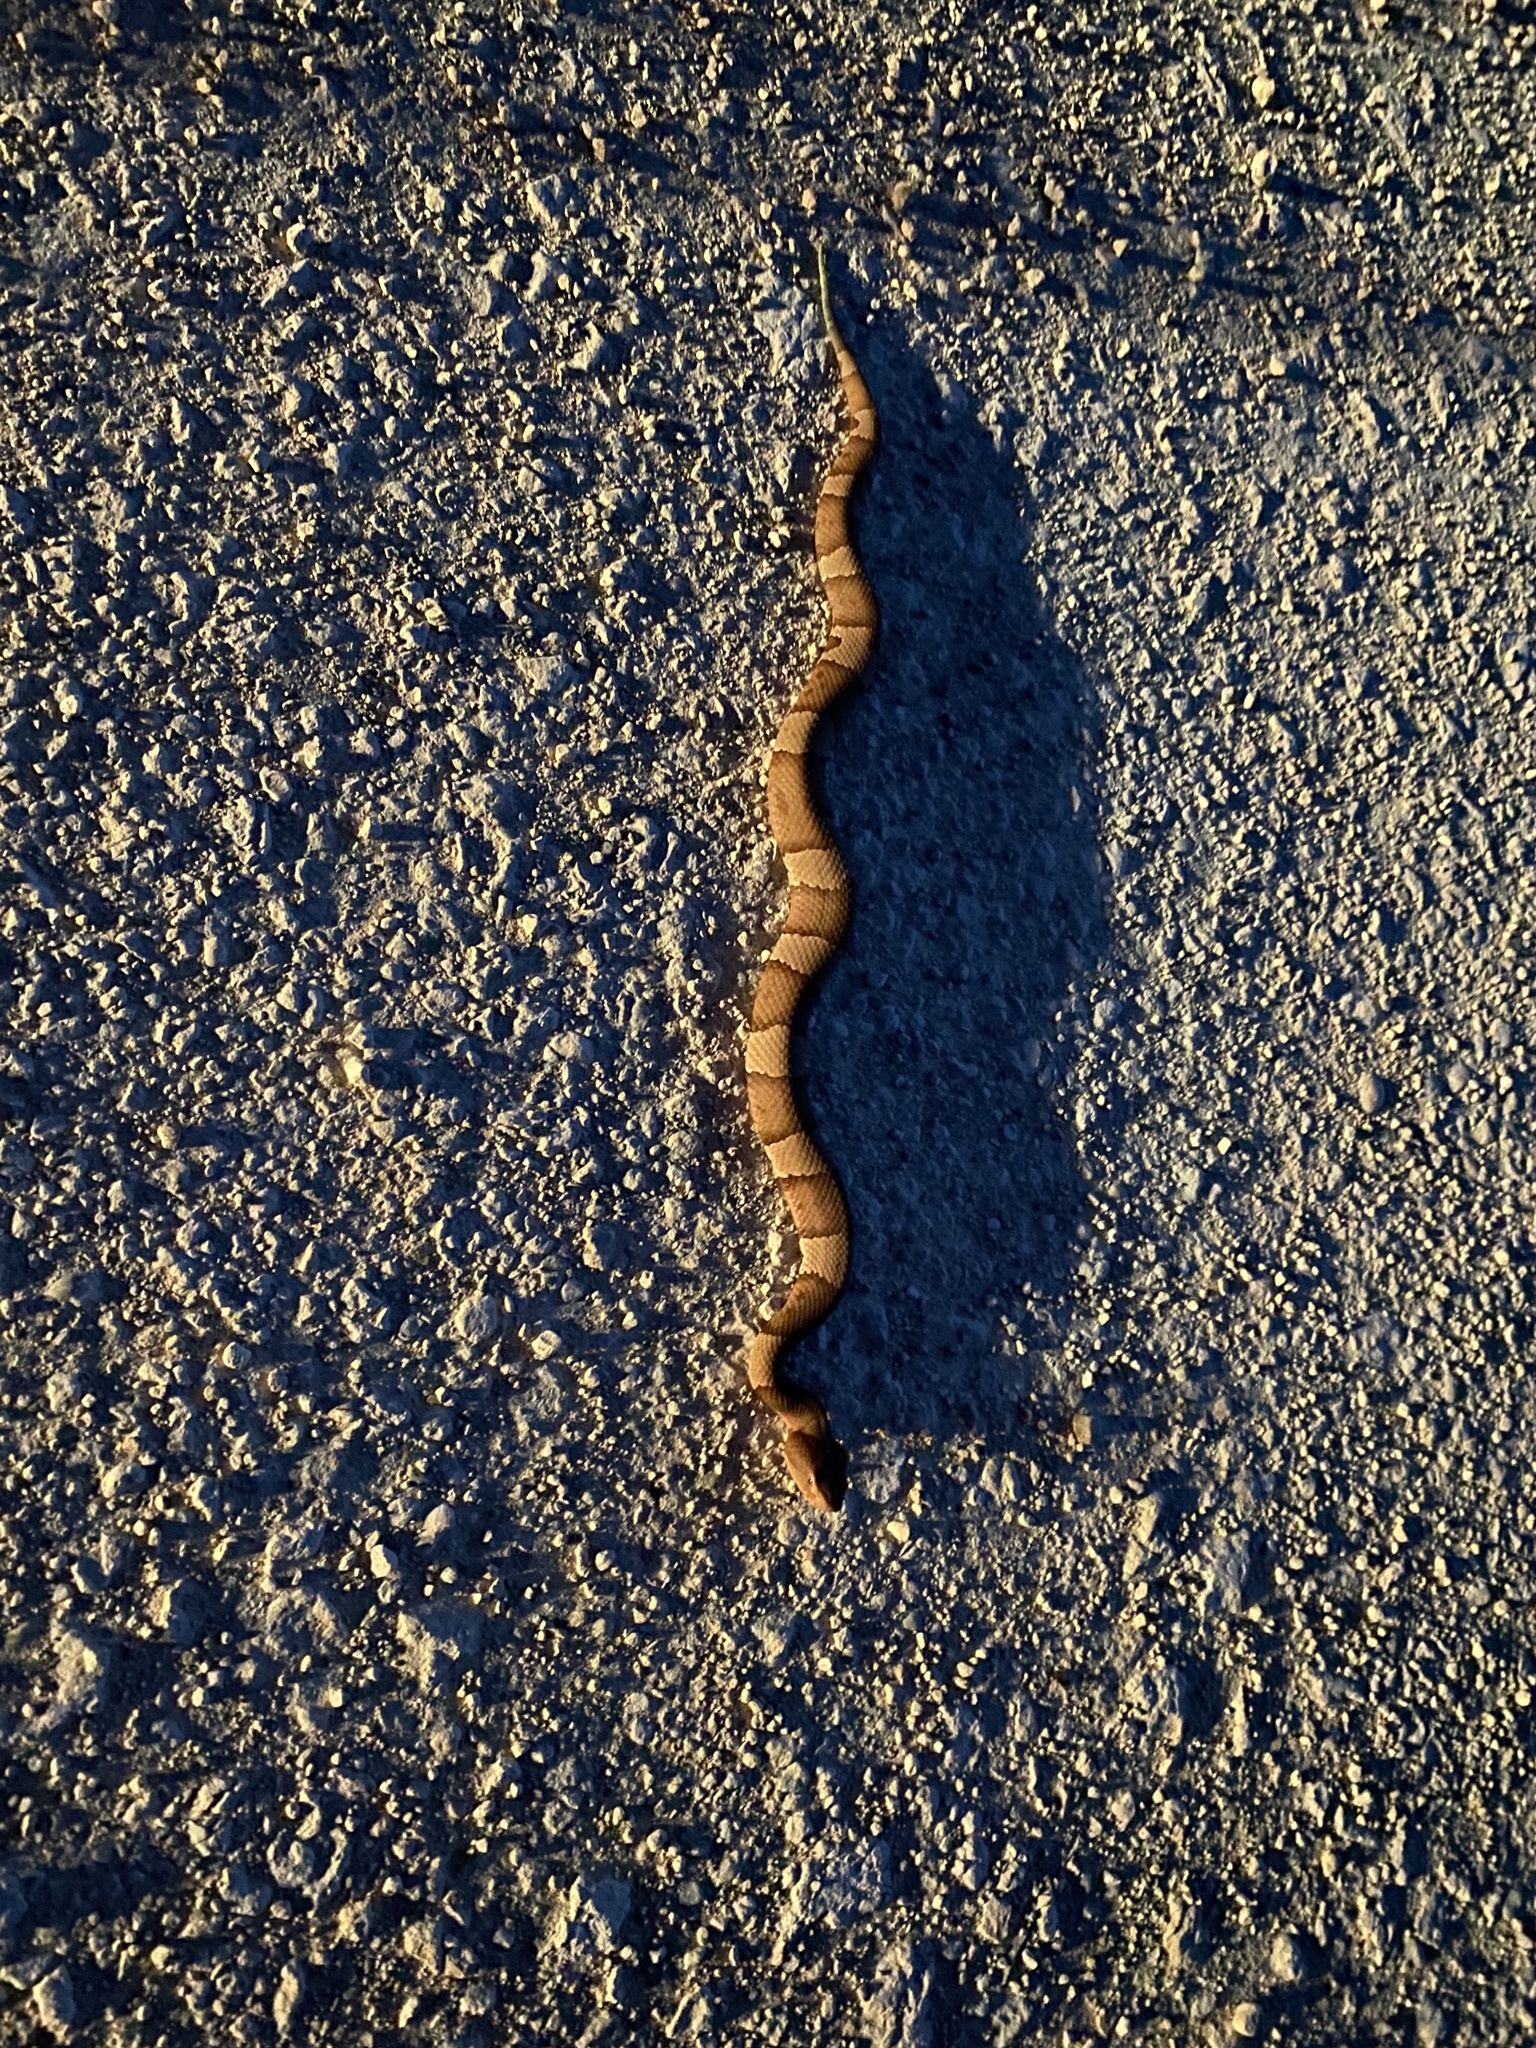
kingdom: Animalia
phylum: Chordata
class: Squamata
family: Viperidae
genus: Agkistrodon
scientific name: Agkistrodon laticinctus
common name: Broad-banded copperhead
